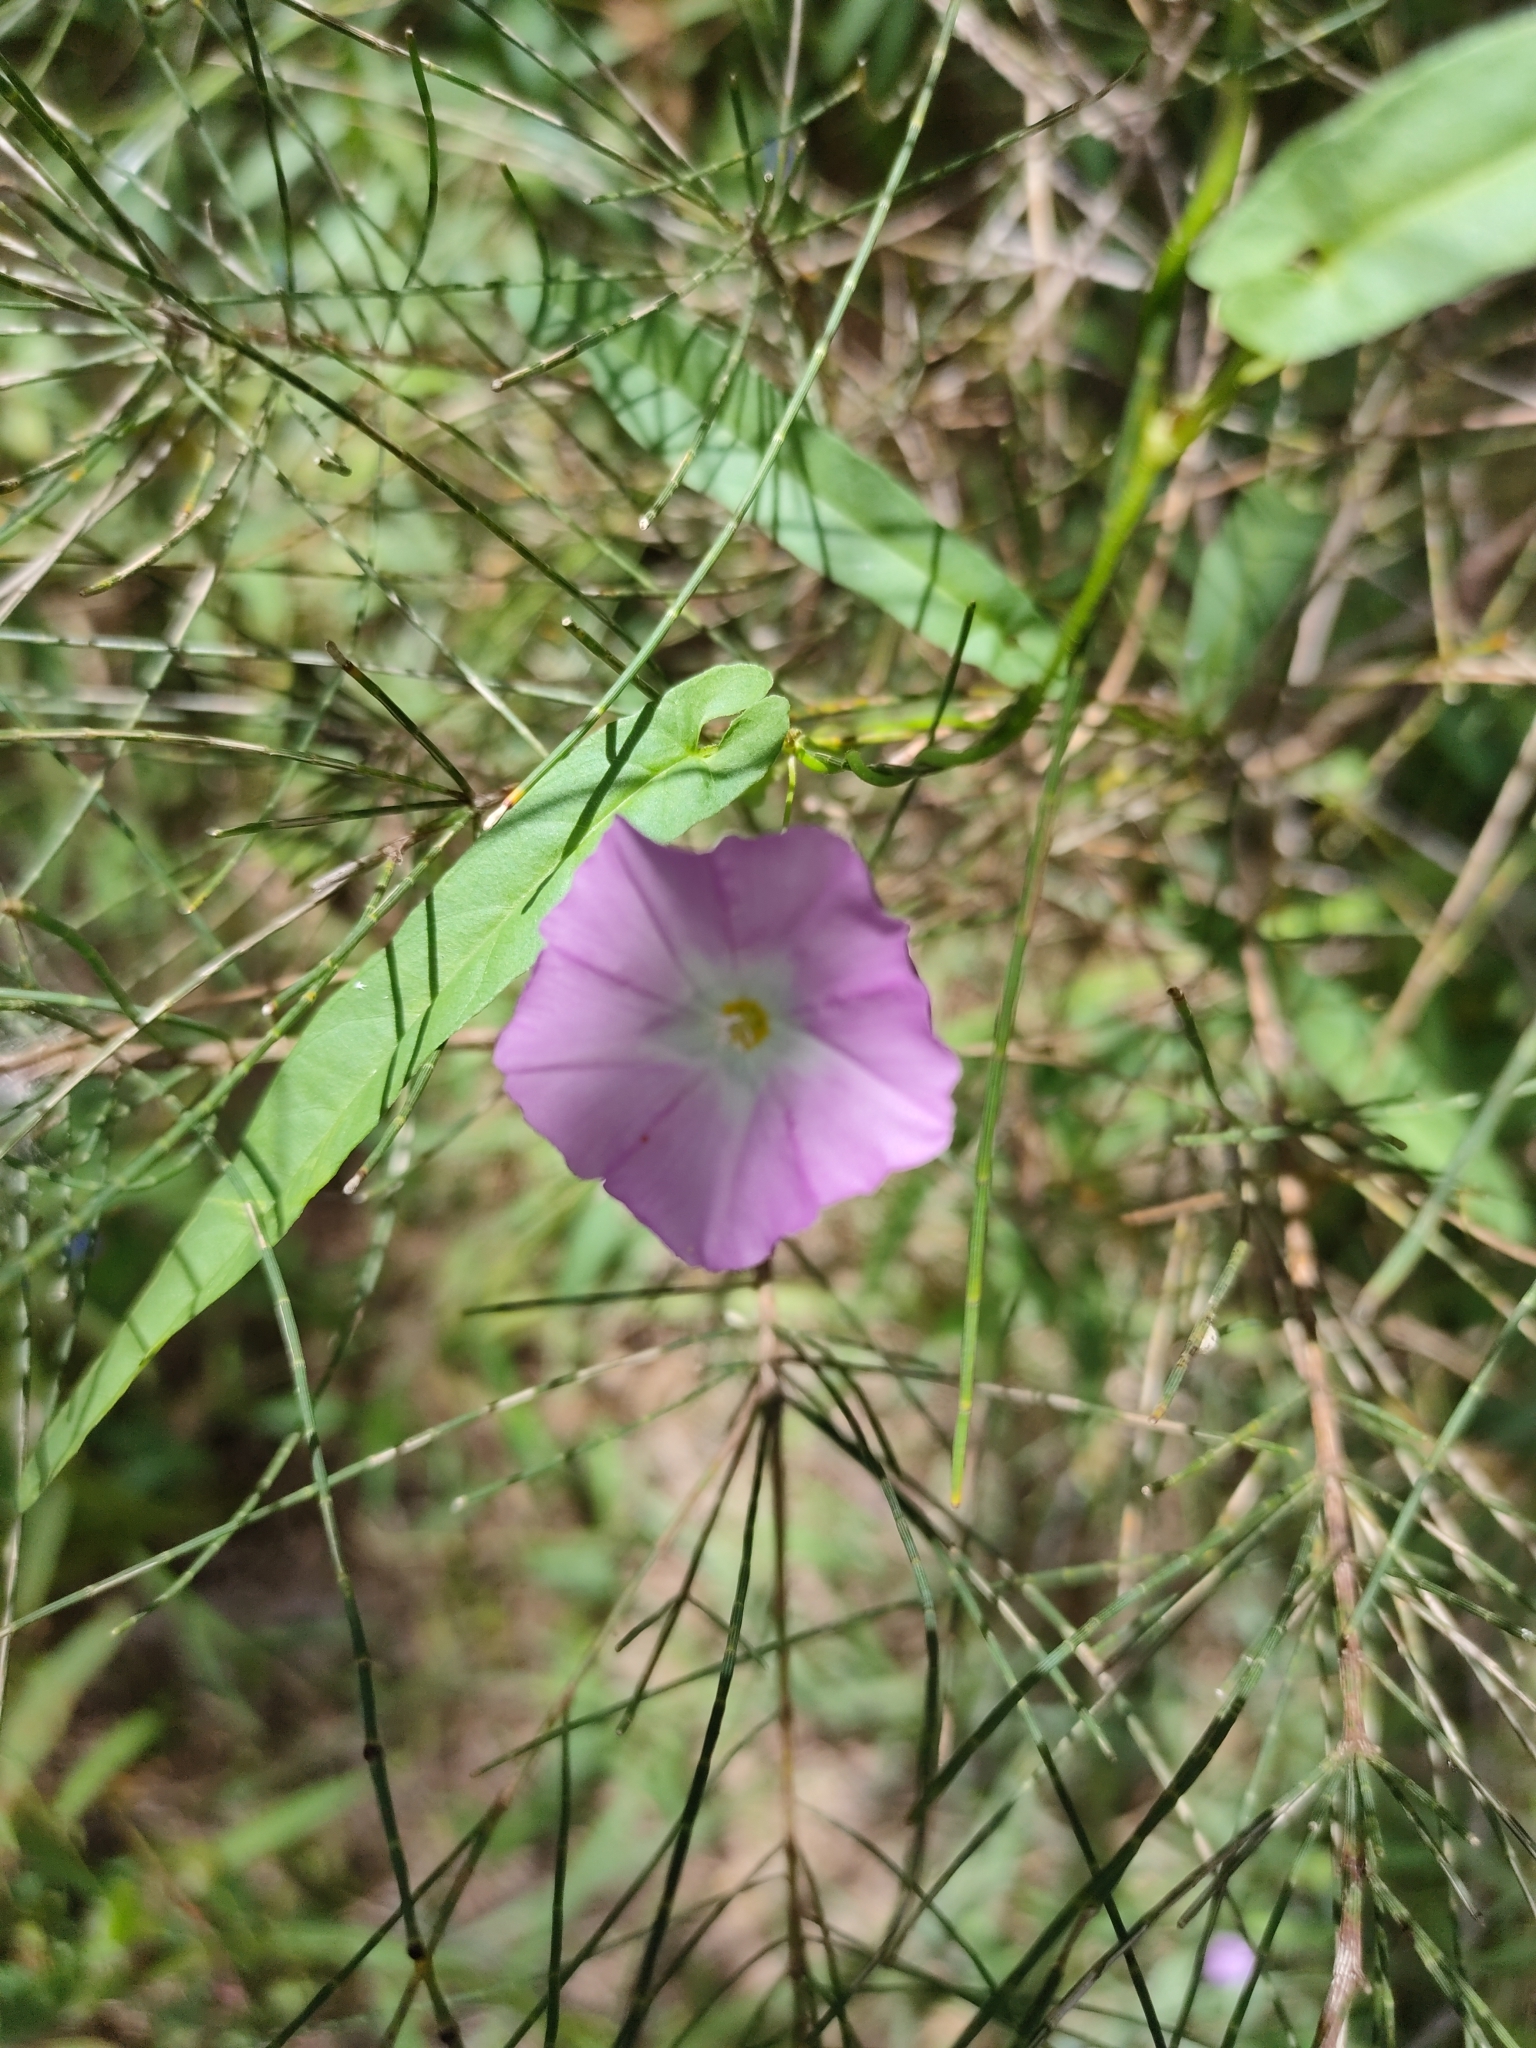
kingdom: Plantae
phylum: Tracheophyta
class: Magnoliopsida
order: Solanales
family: Convolvulaceae
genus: Polymeria
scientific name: Polymeria calycina
